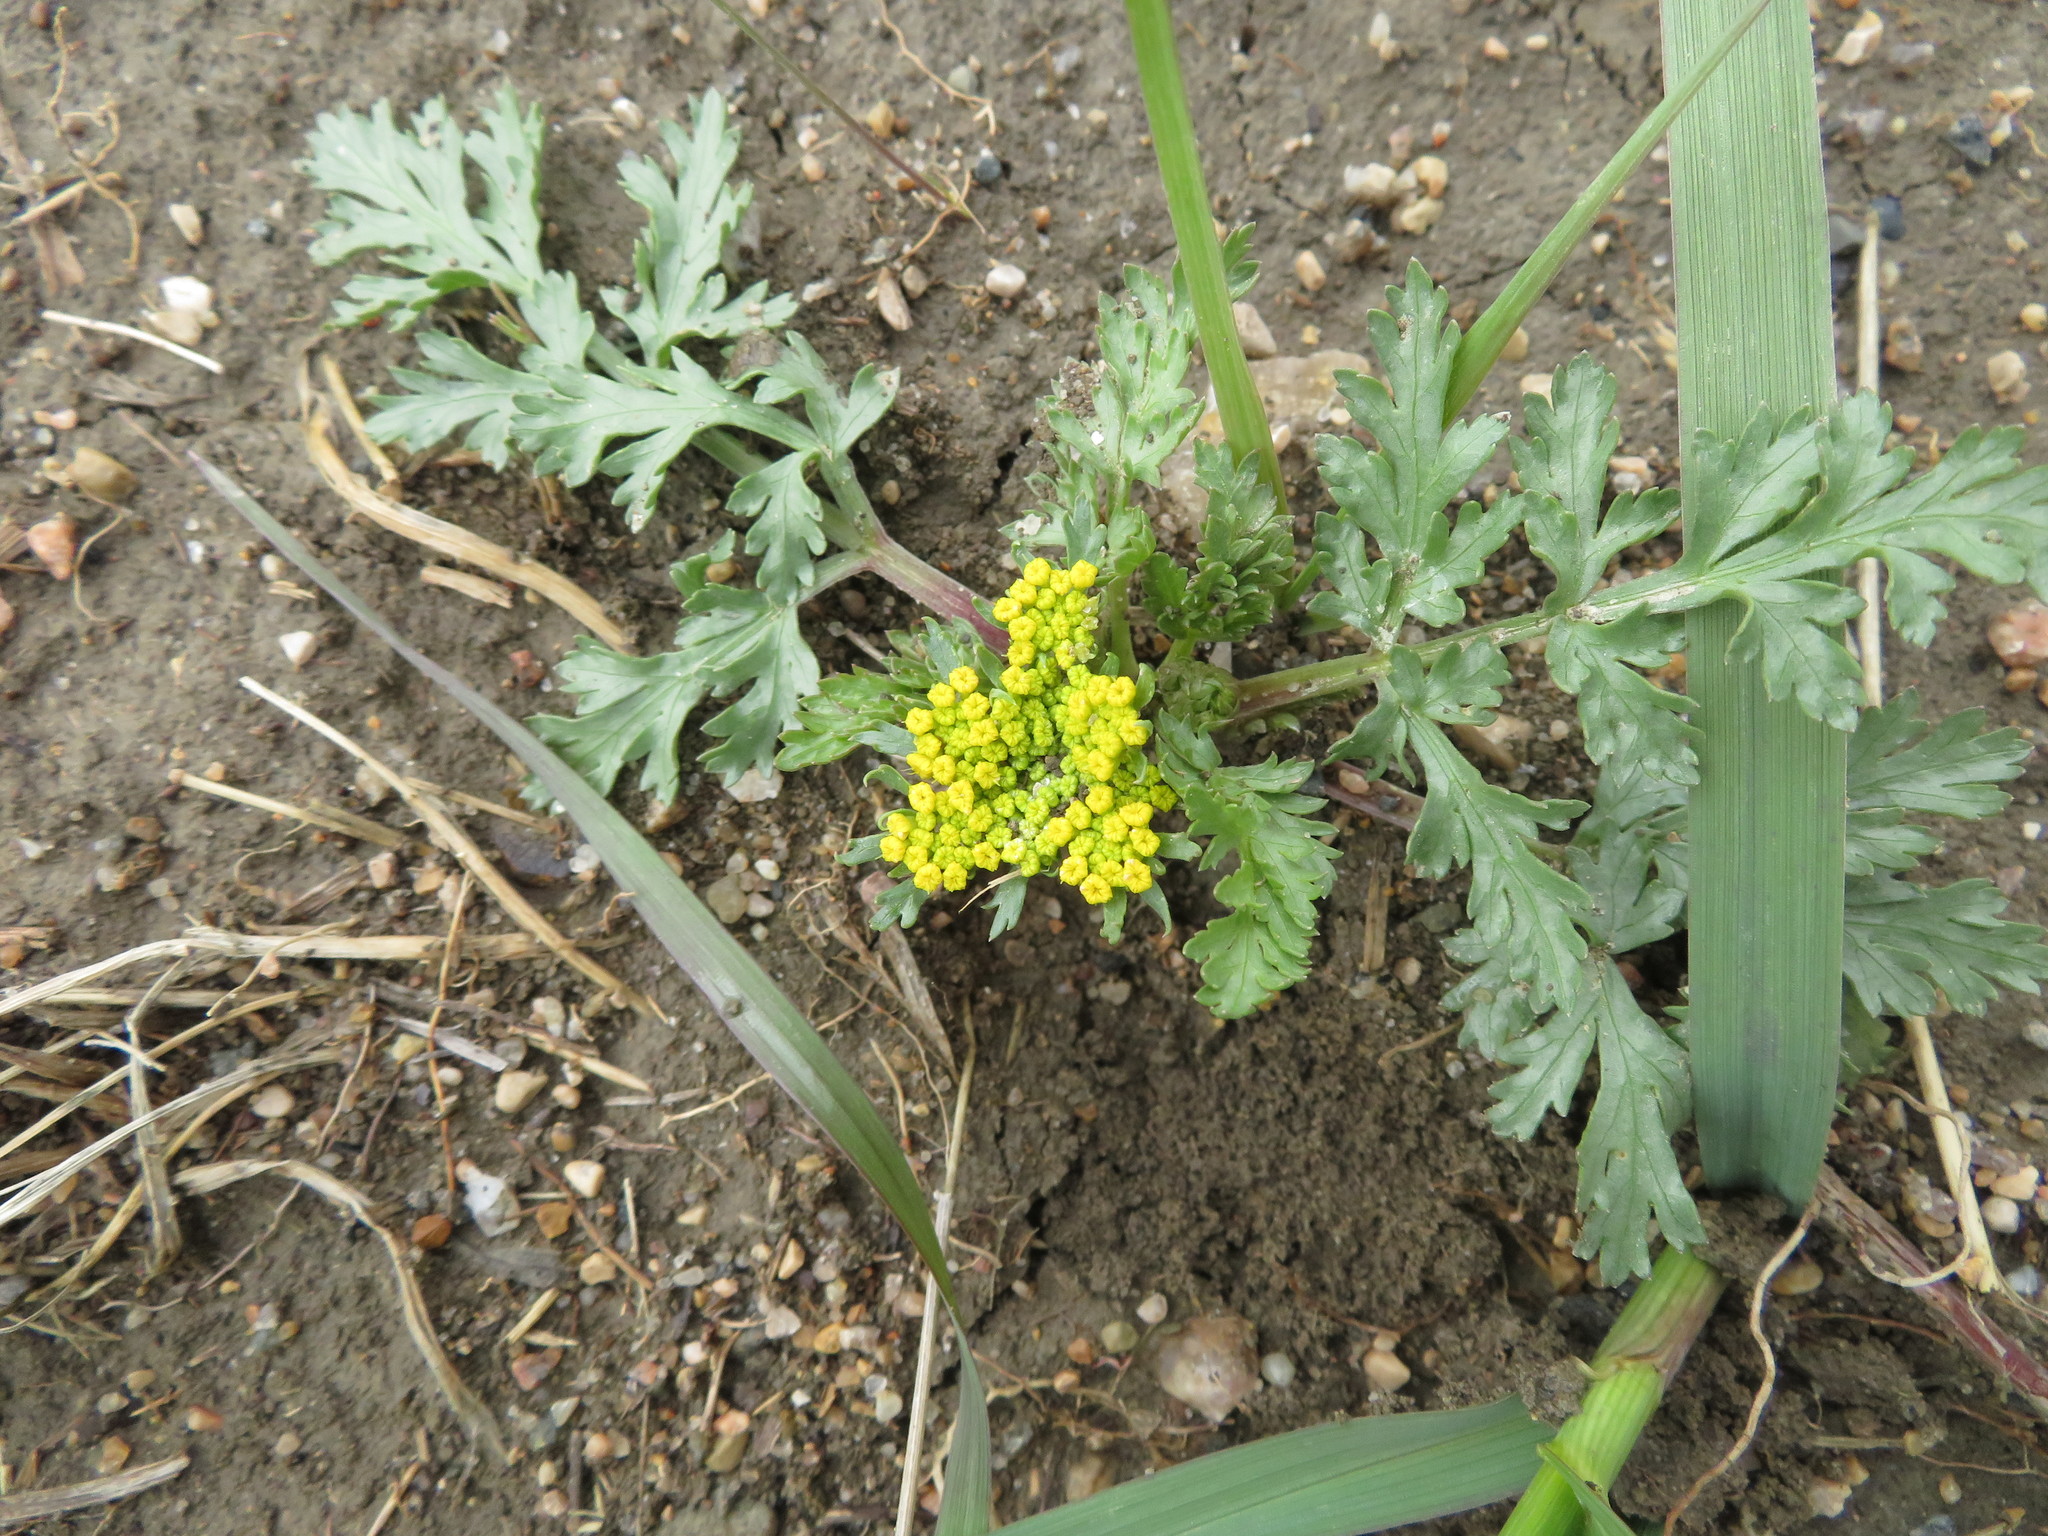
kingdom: Plantae
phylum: Tracheophyta
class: Magnoliopsida
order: Apiales
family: Apiaceae
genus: Musineon
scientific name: Musineon divaricatum
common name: Plains musineon
